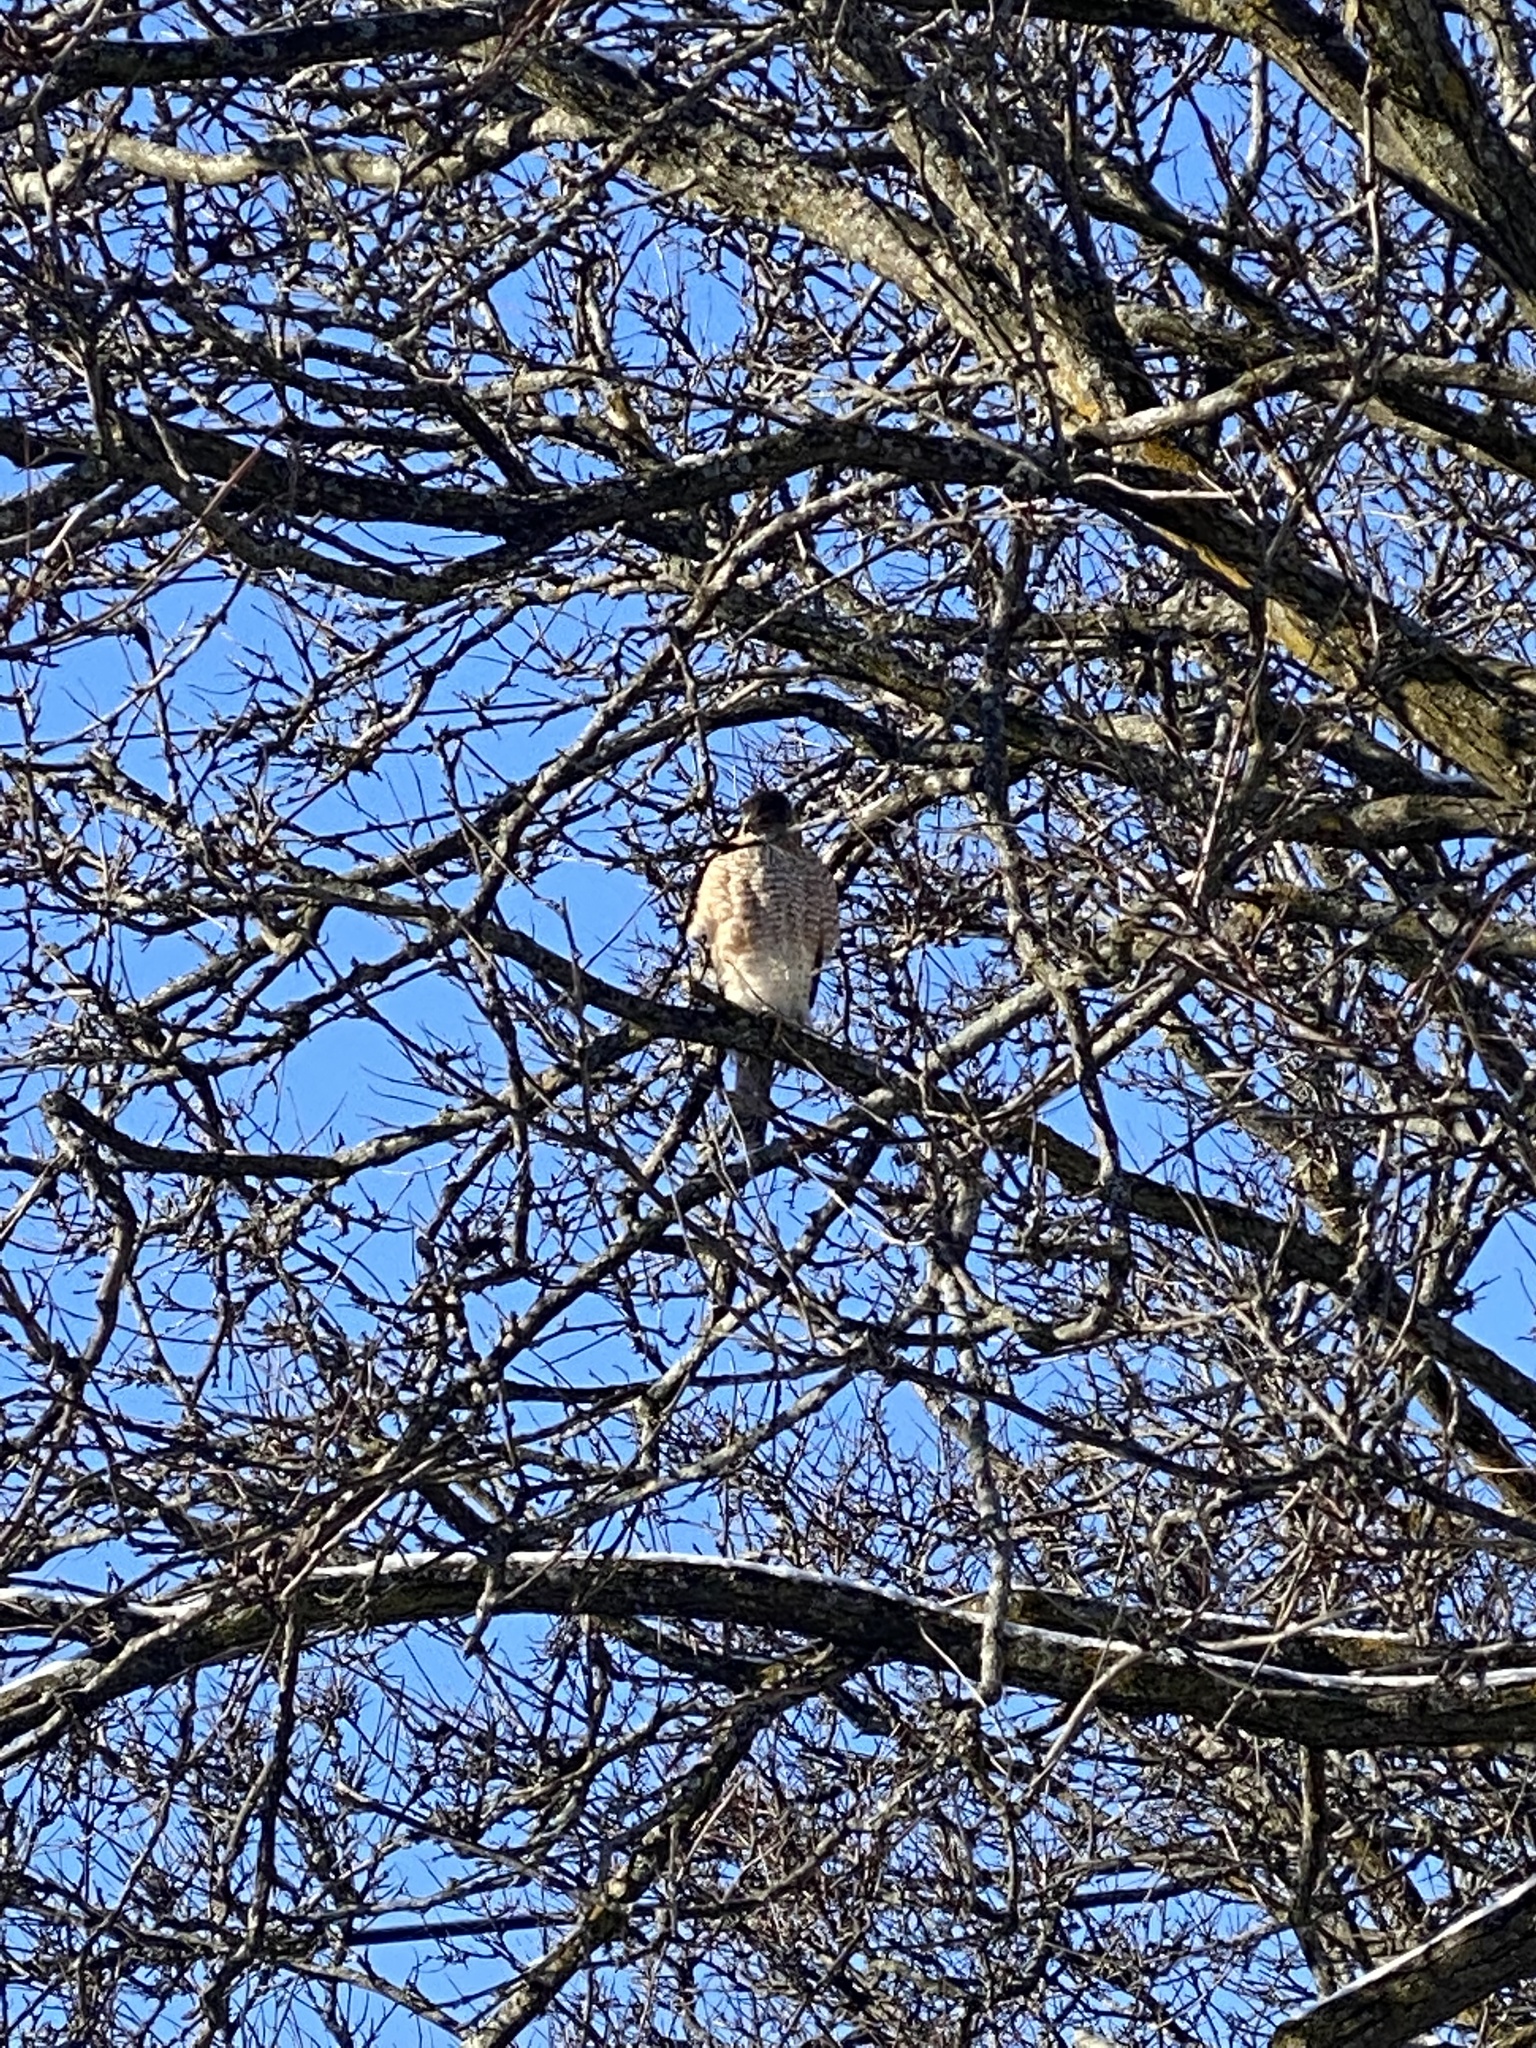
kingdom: Animalia
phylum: Chordata
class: Aves
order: Accipitriformes
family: Accipitridae
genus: Accipiter
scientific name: Accipiter cooperii
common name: Cooper's hawk
